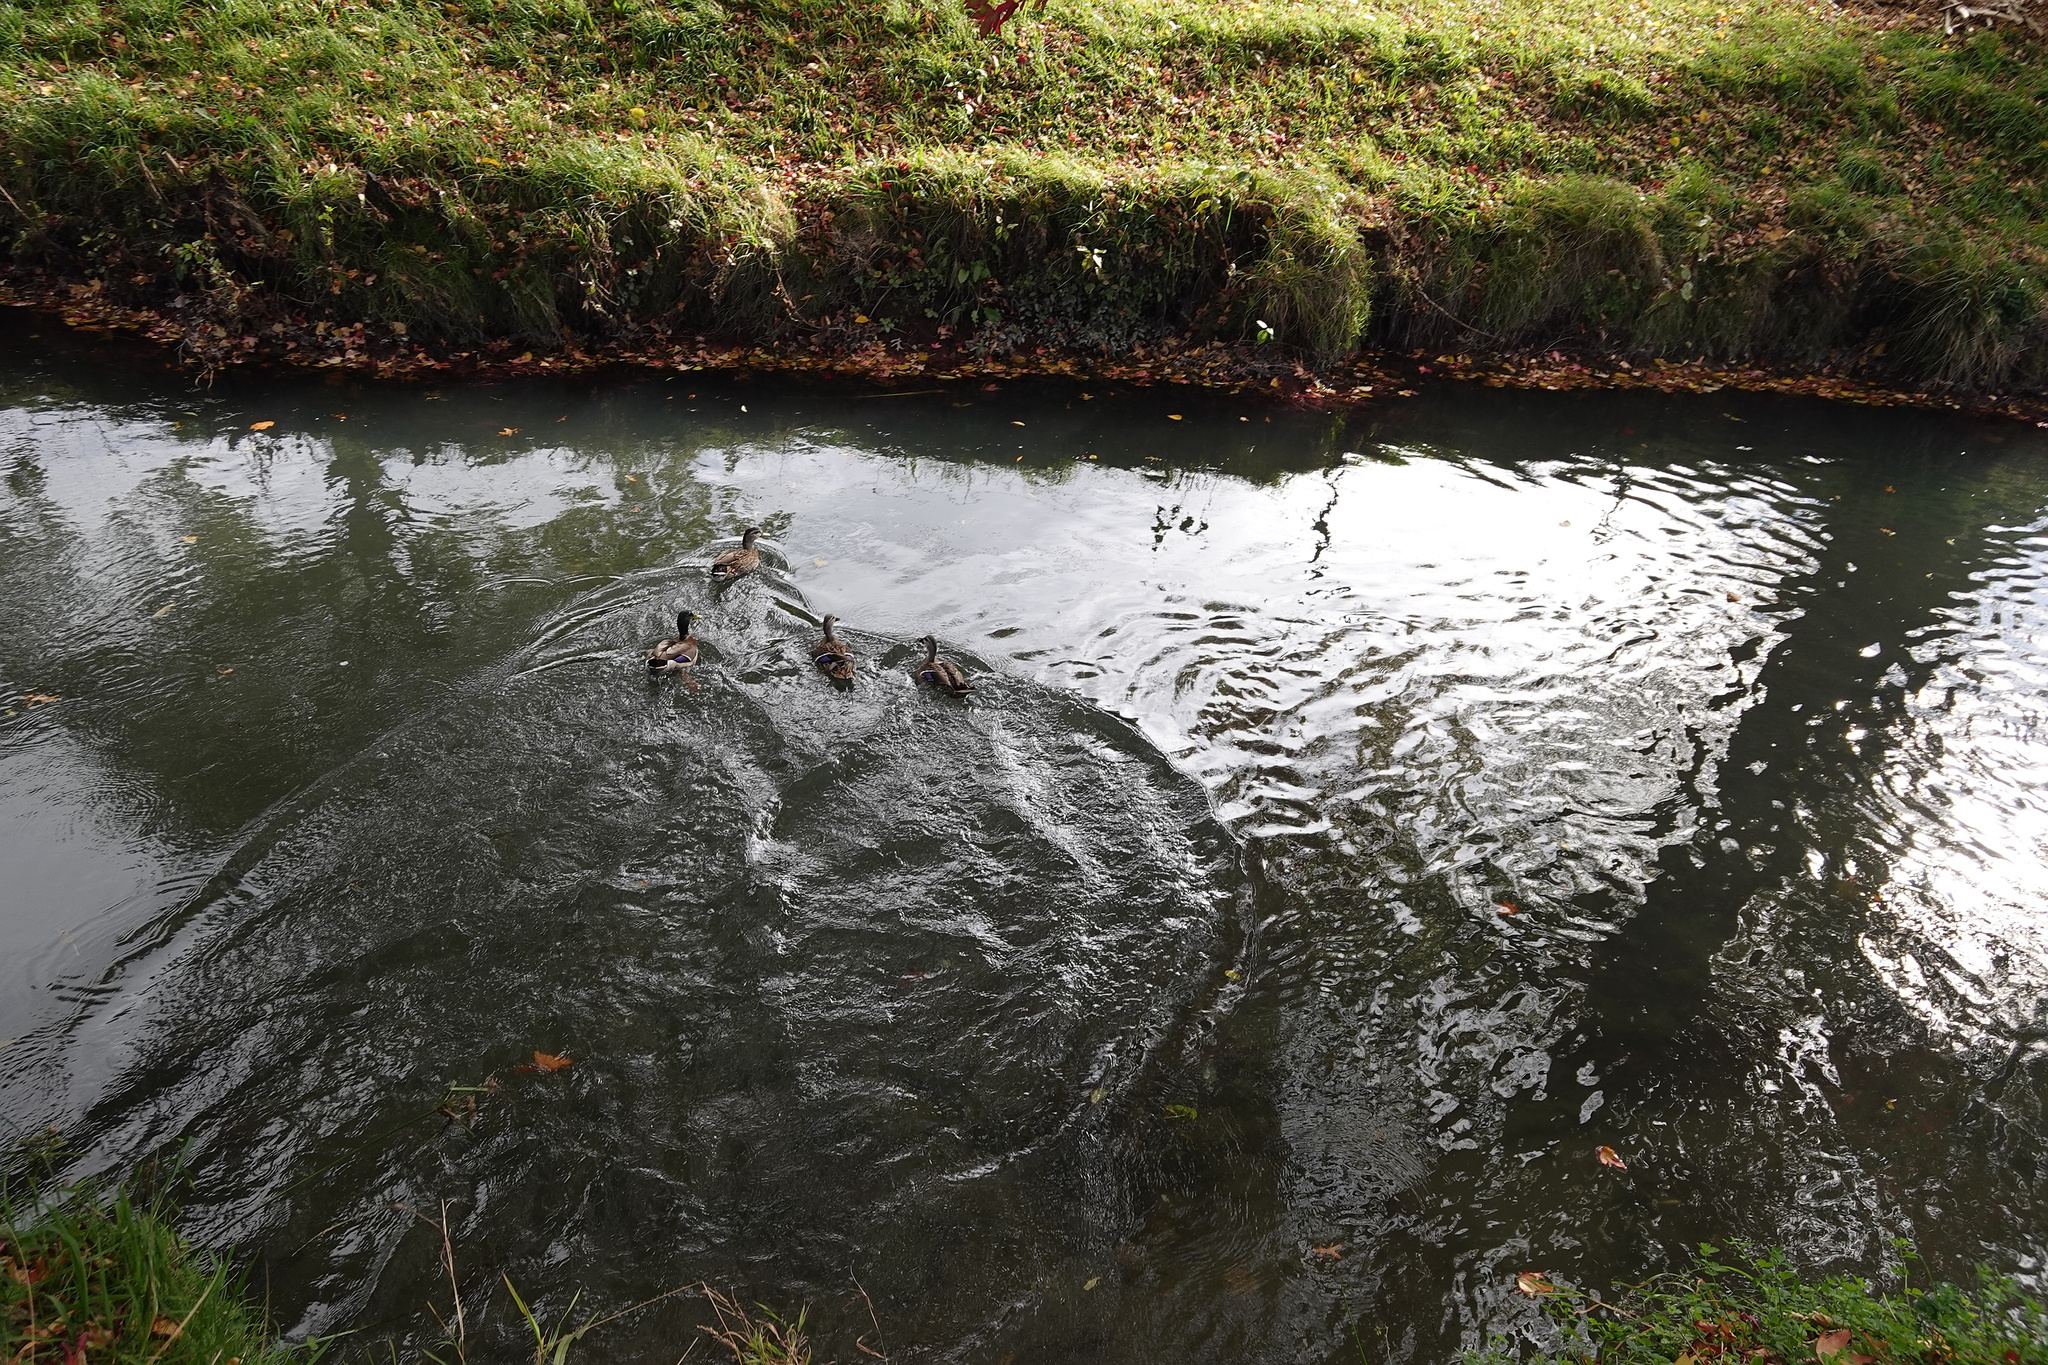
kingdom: Animalia
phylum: Chordata
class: Aves
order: Anseriformes
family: Anatidae
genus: Anas
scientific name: Anas
